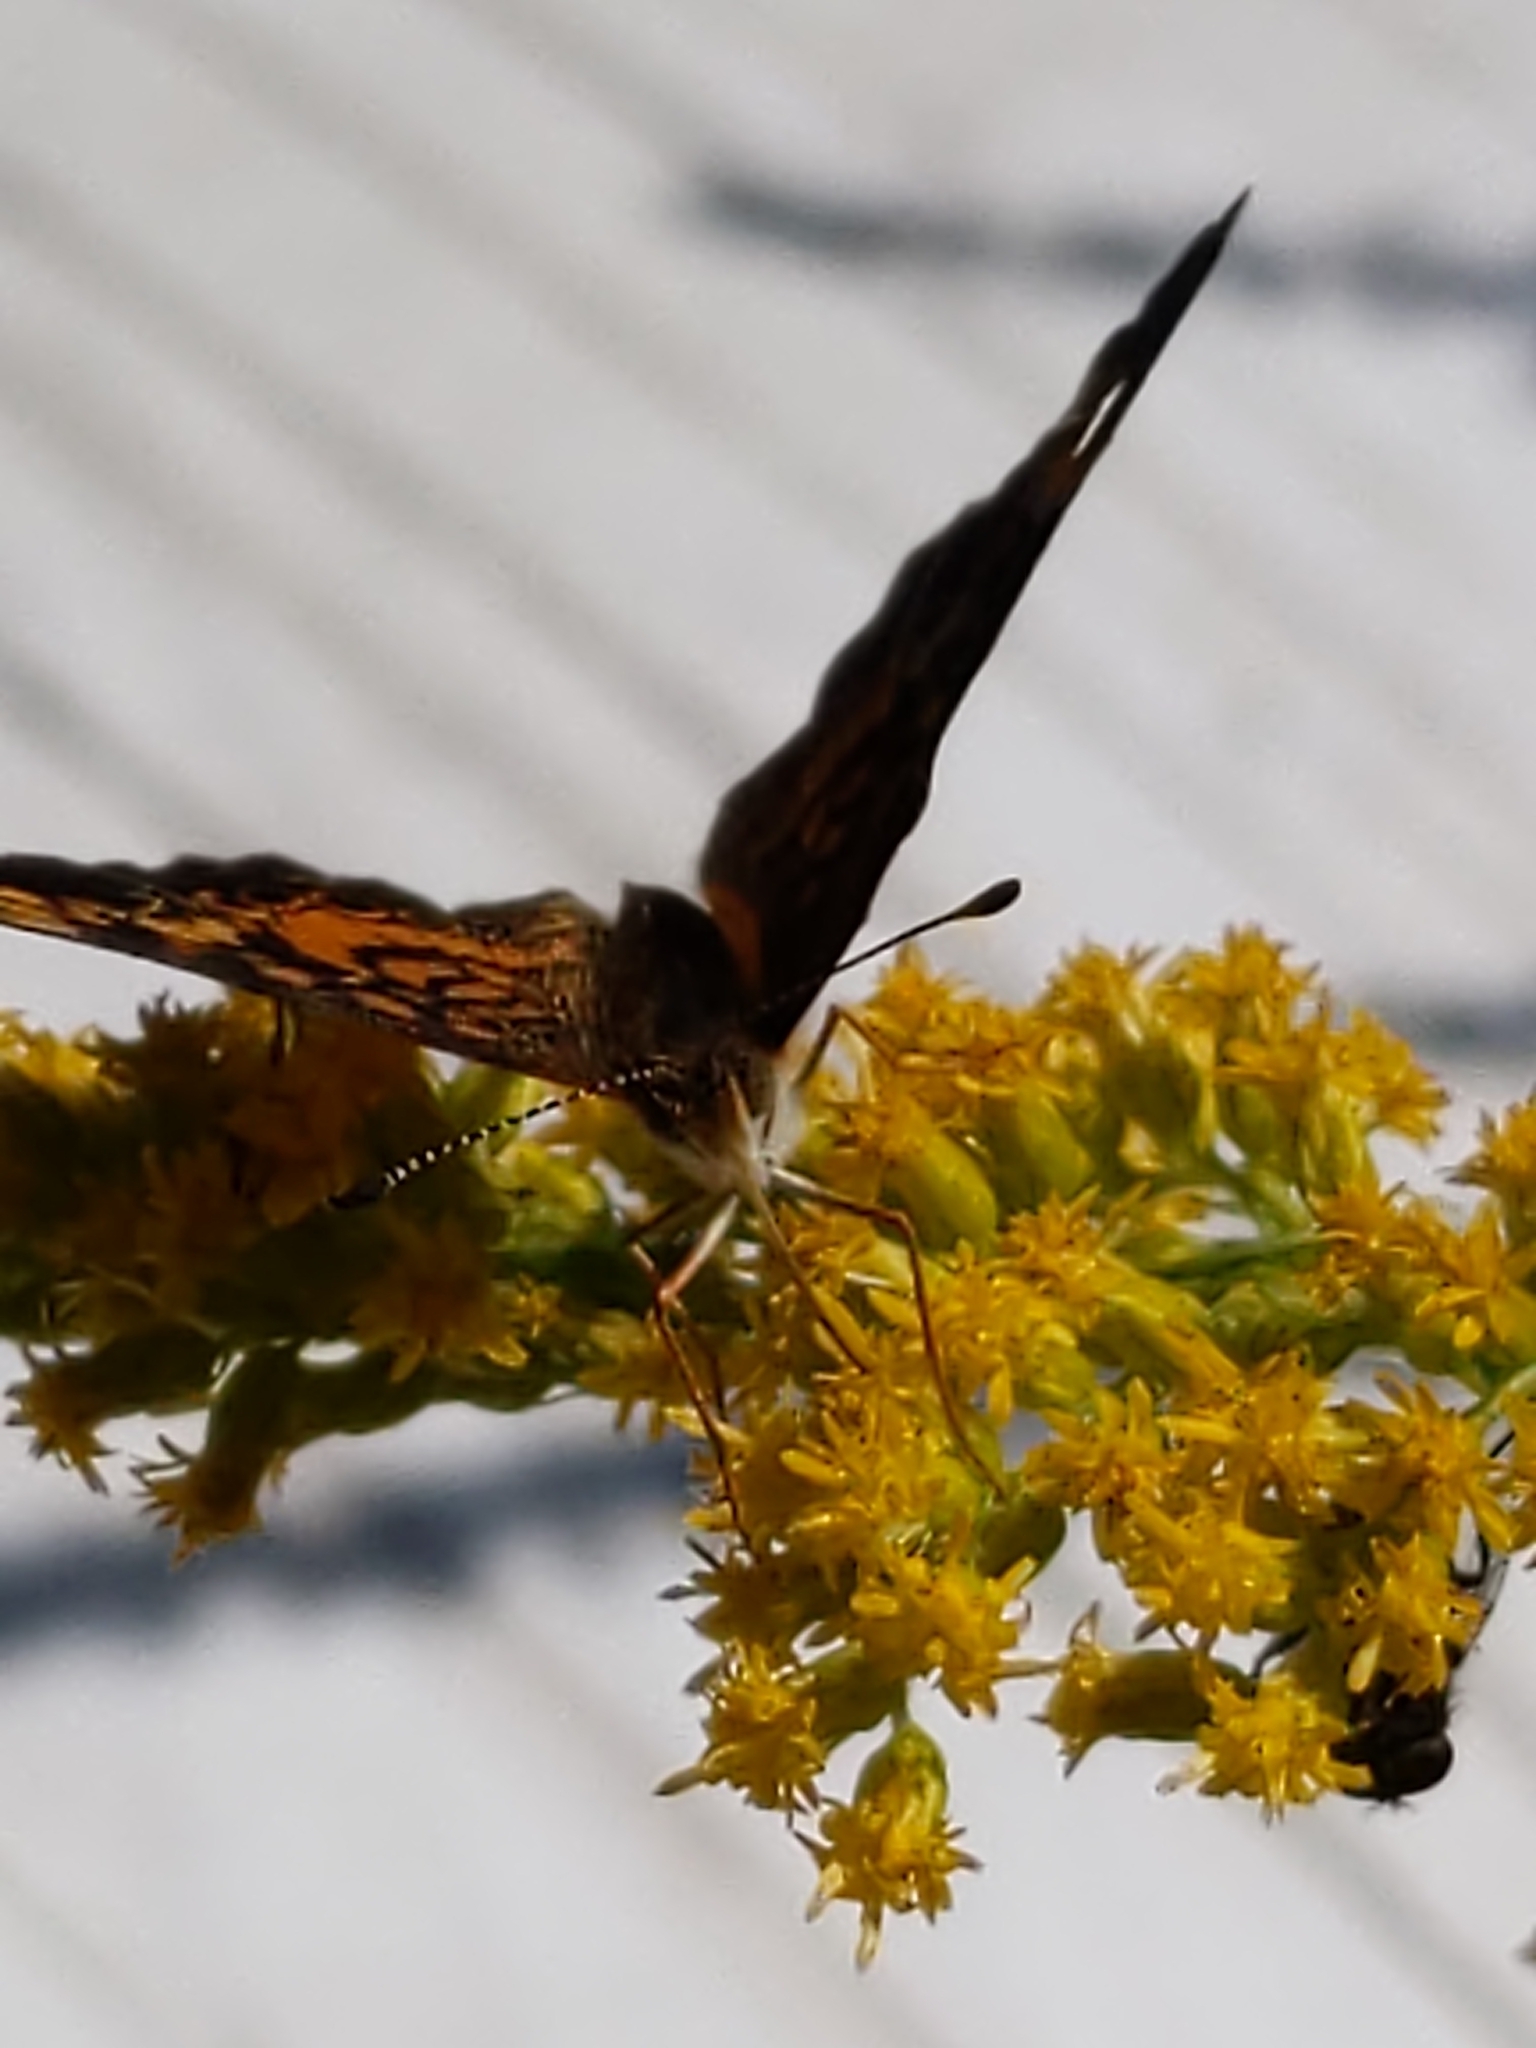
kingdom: Animalia
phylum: Arthropoda
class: Insecta
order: Lepidoptera
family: Nymphalidae
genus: Phyciodes
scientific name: Phyciodes tharos
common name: Pearl crescent
